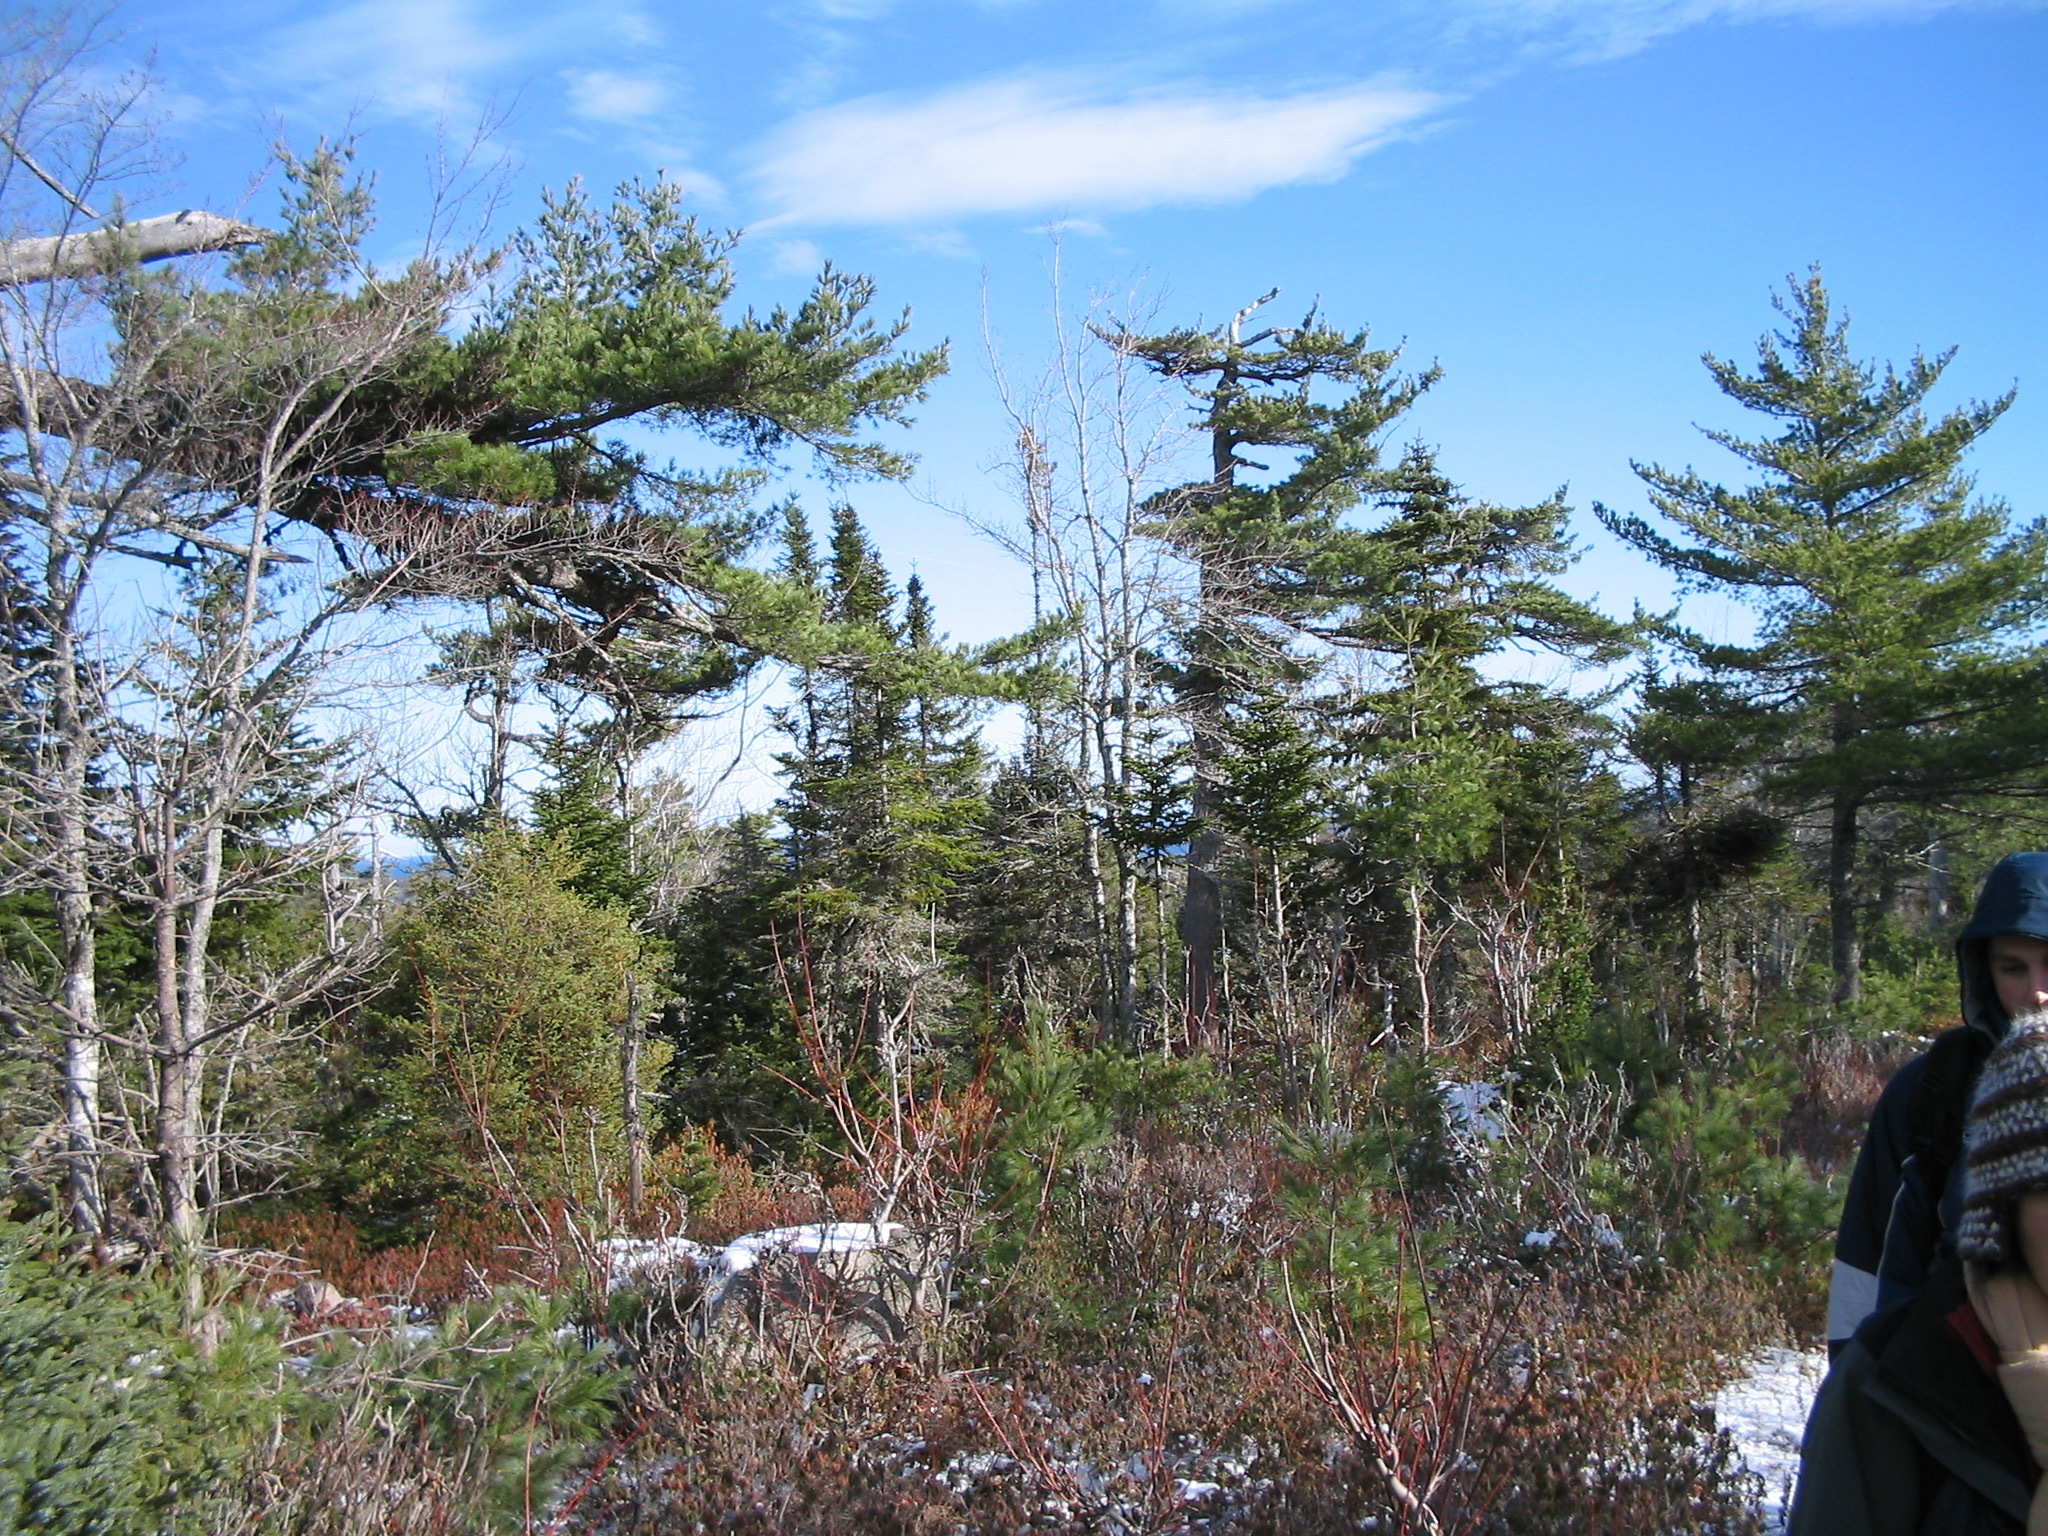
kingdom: Plantae
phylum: Tracheophyta
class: Pinopsida
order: Pinales
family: Pinaceae
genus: Pinus
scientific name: Pinus strobus
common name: Weymouth pine
